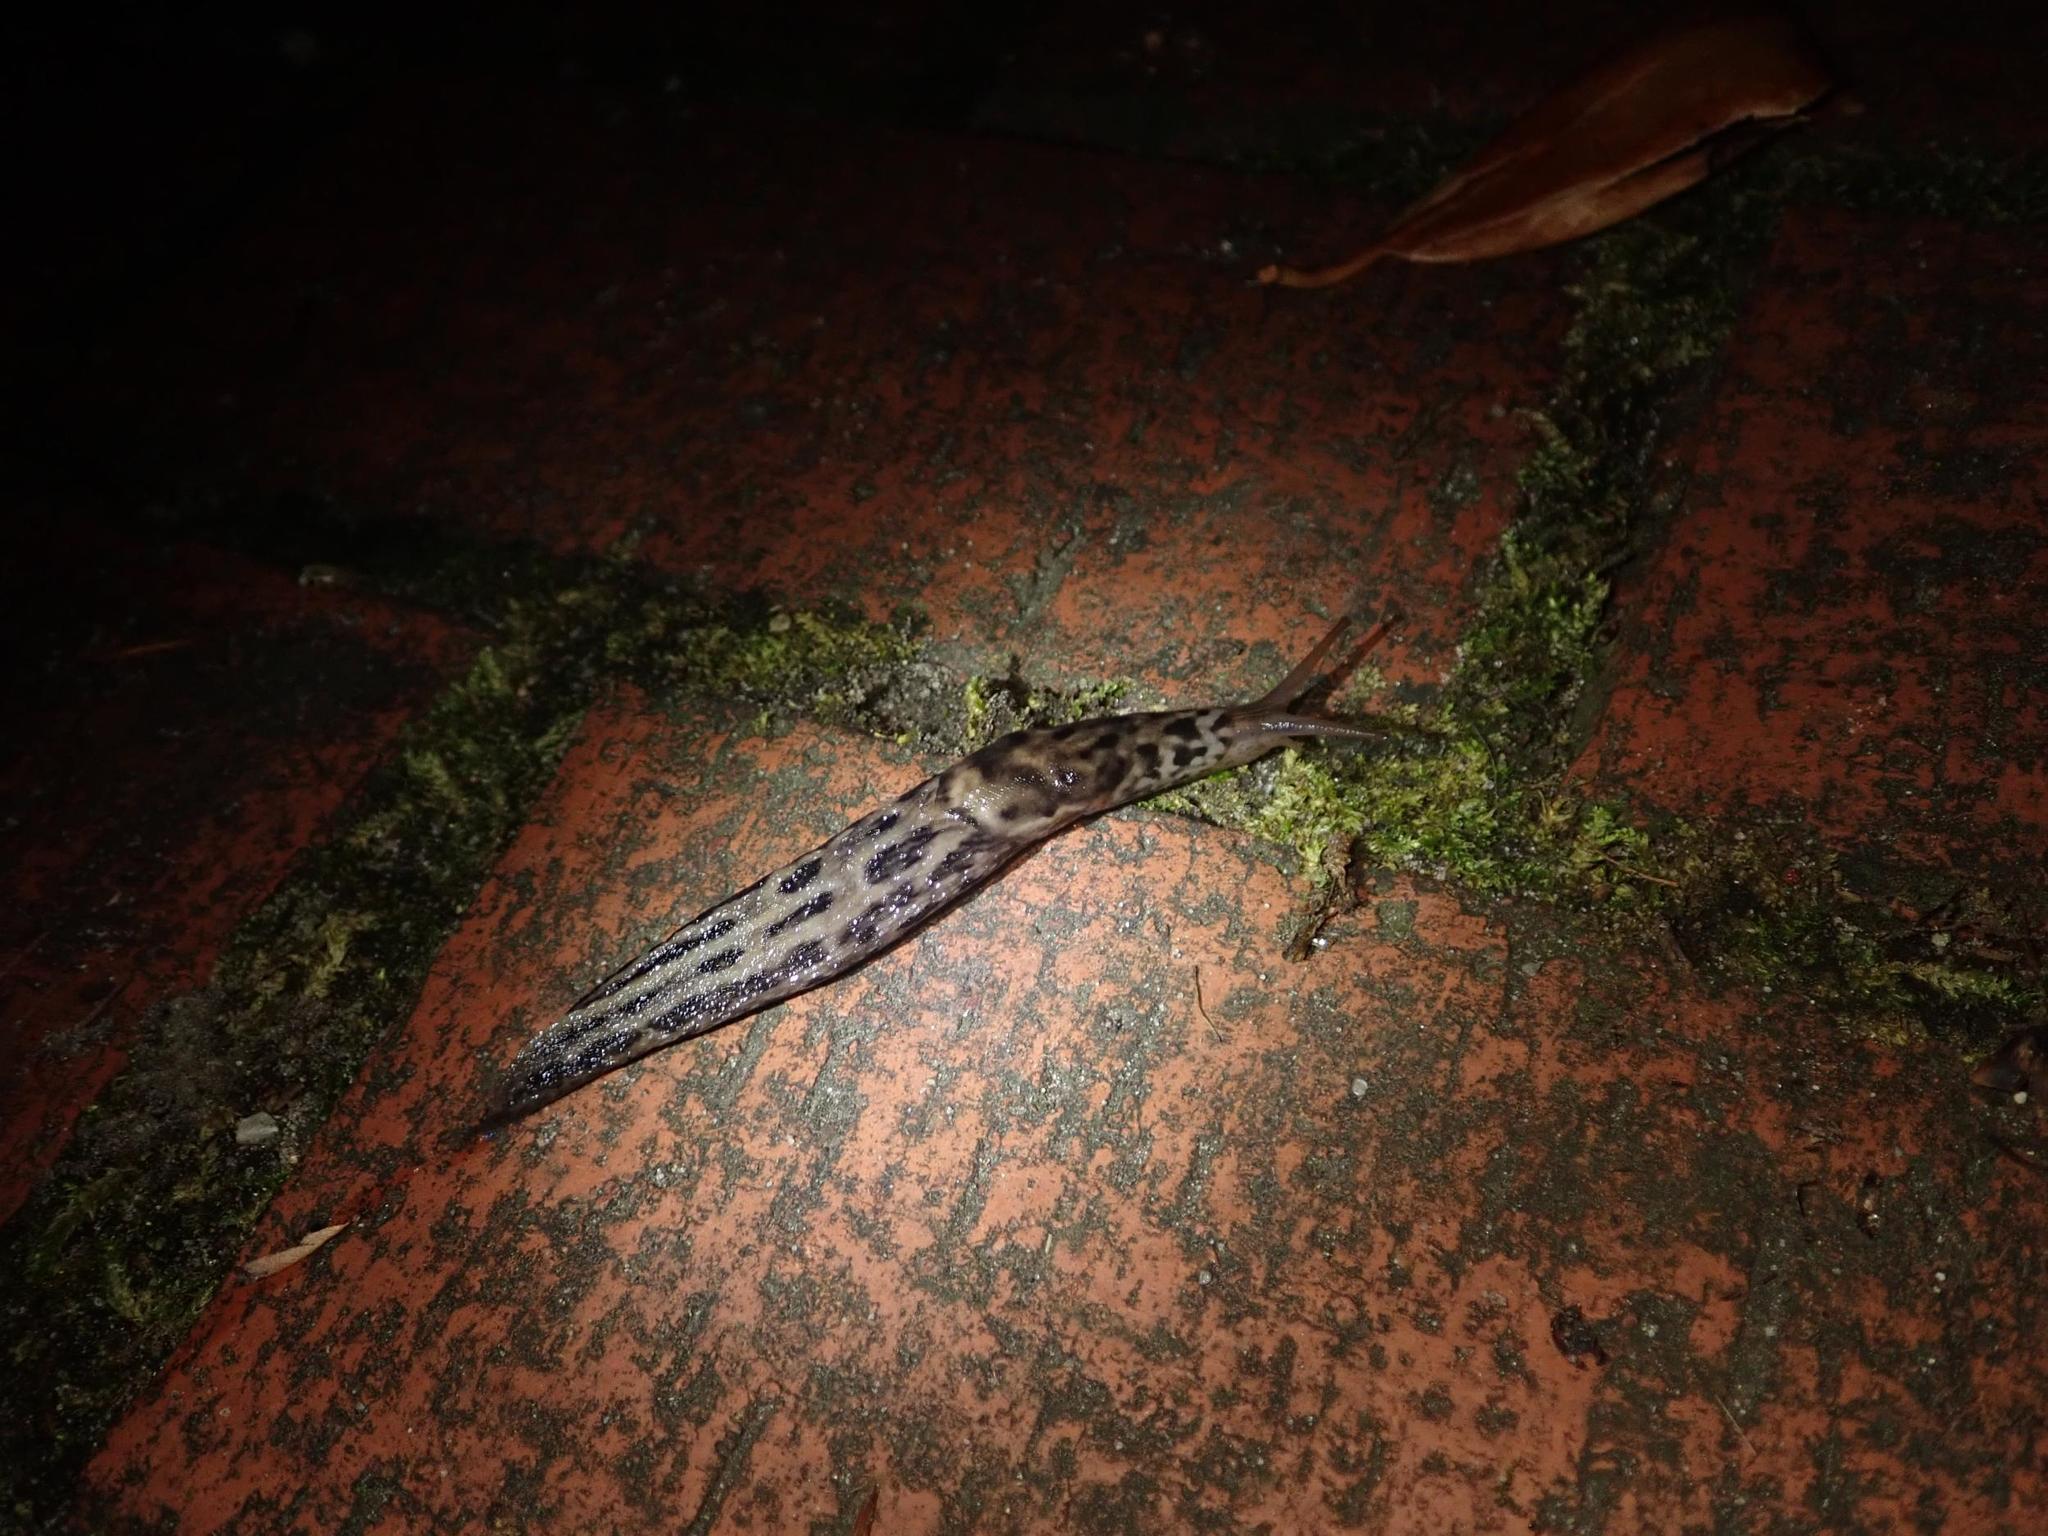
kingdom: Animalia
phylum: Mollusca
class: Gastropoda
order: Stylommatophora
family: Limacidae
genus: Limax
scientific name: Limax maximus
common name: Great grey slug
